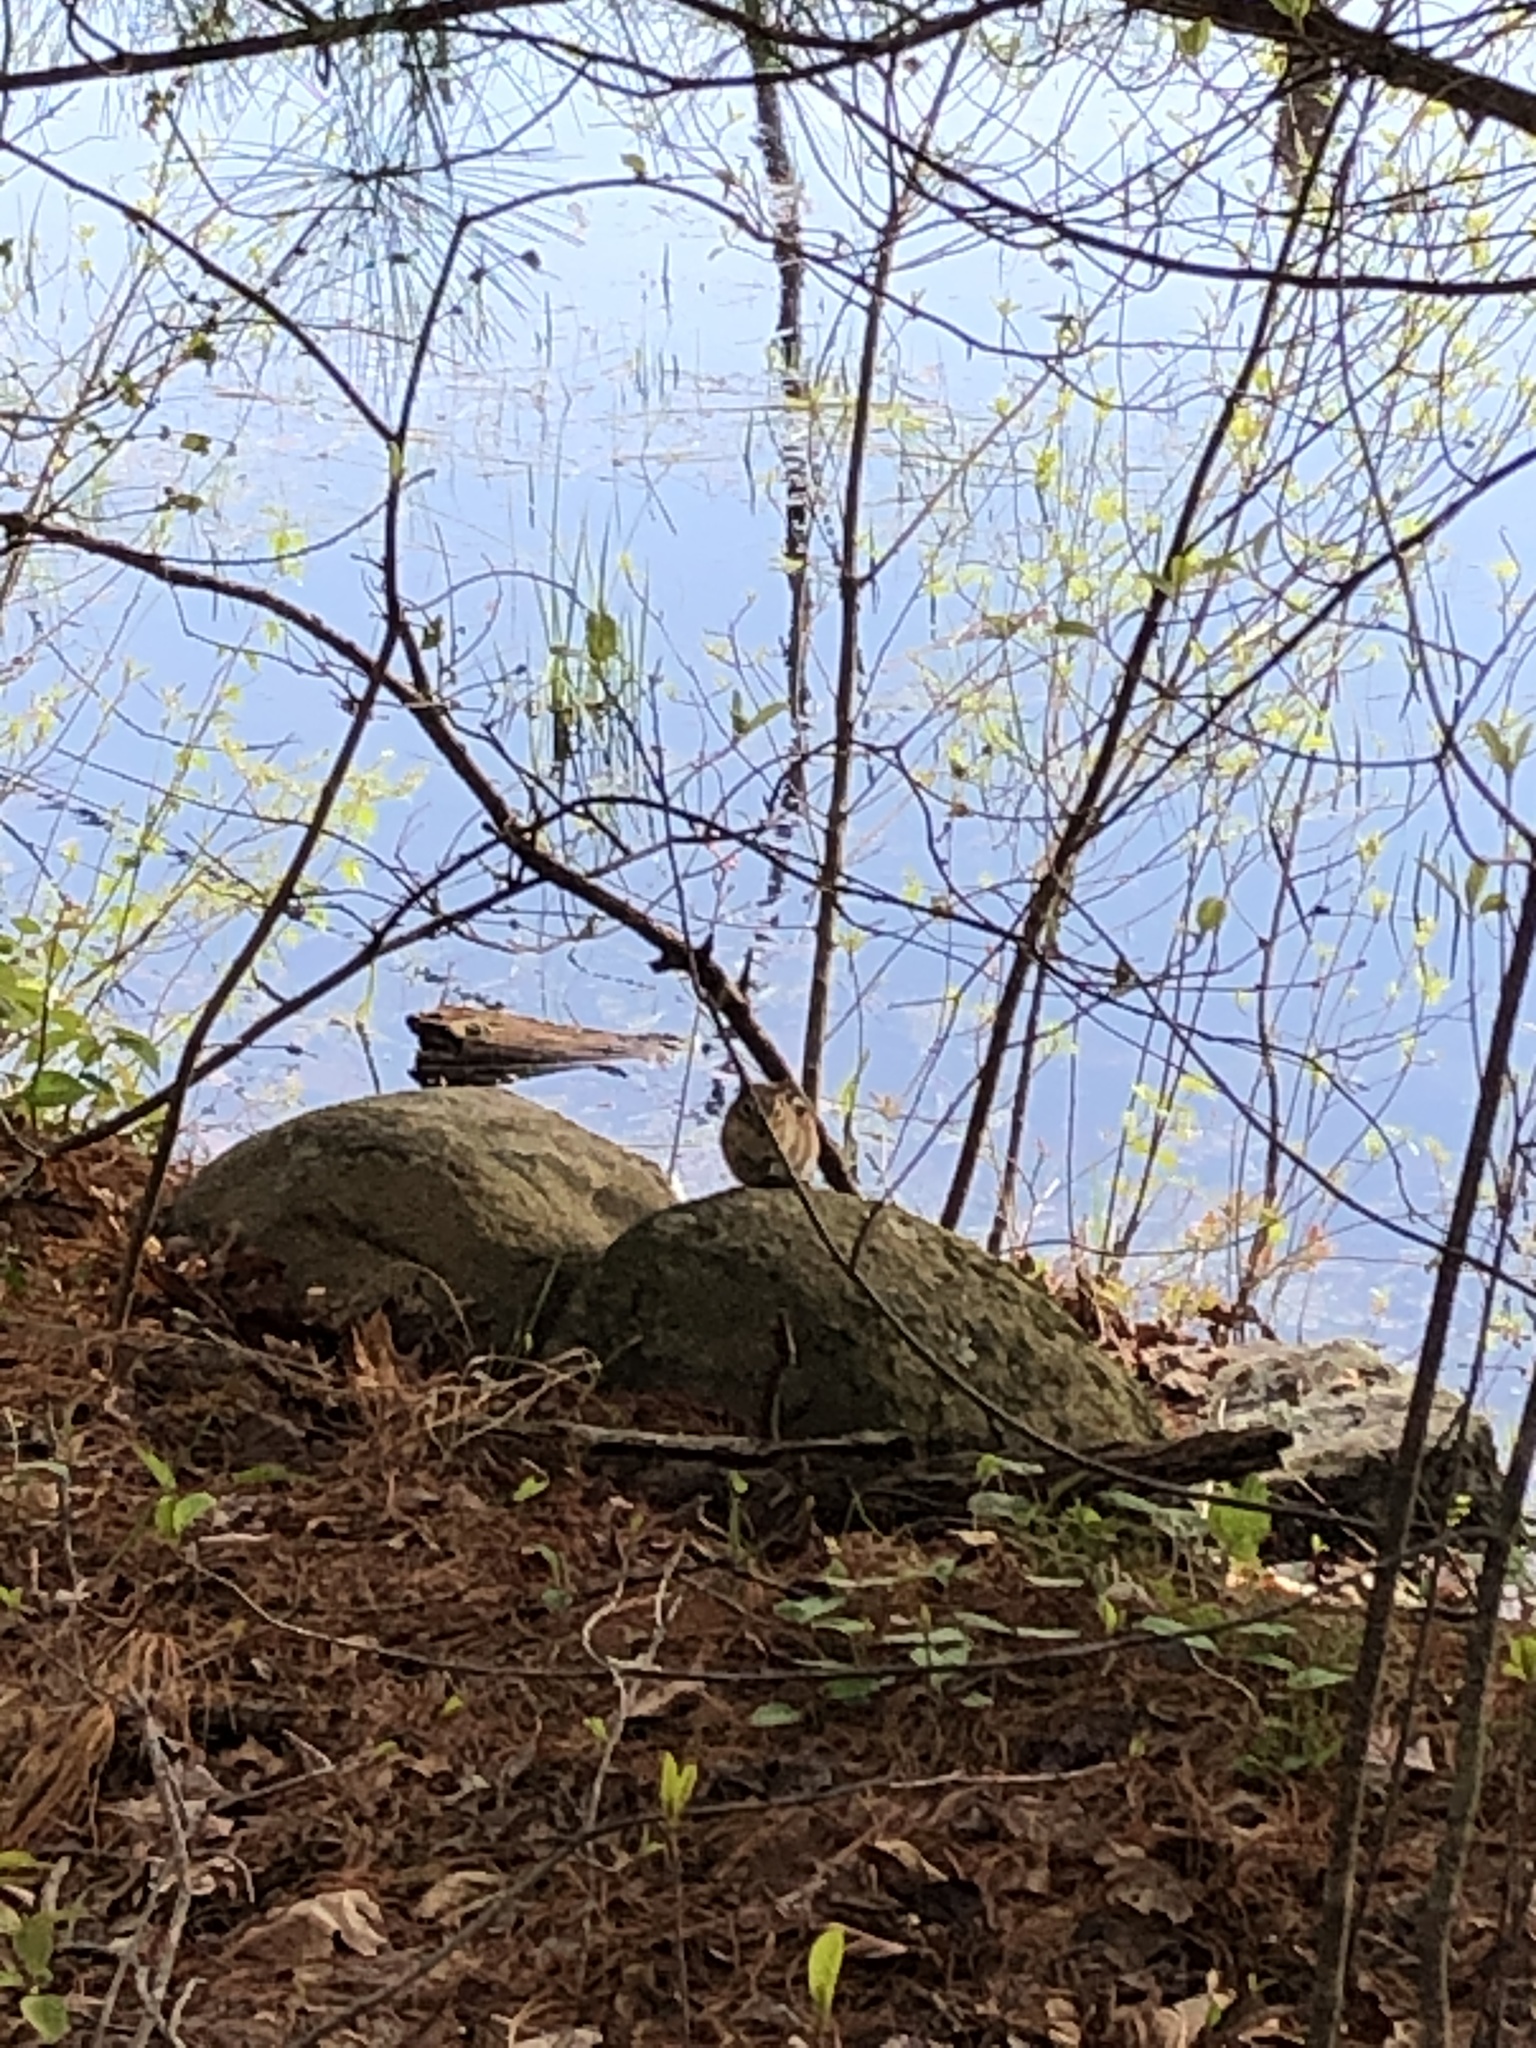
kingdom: Animalia
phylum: Chordata
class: Mammalia
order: Rodentia
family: Sciuridae
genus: Tamias
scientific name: Tamias striatus
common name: Eastern chipmunk
